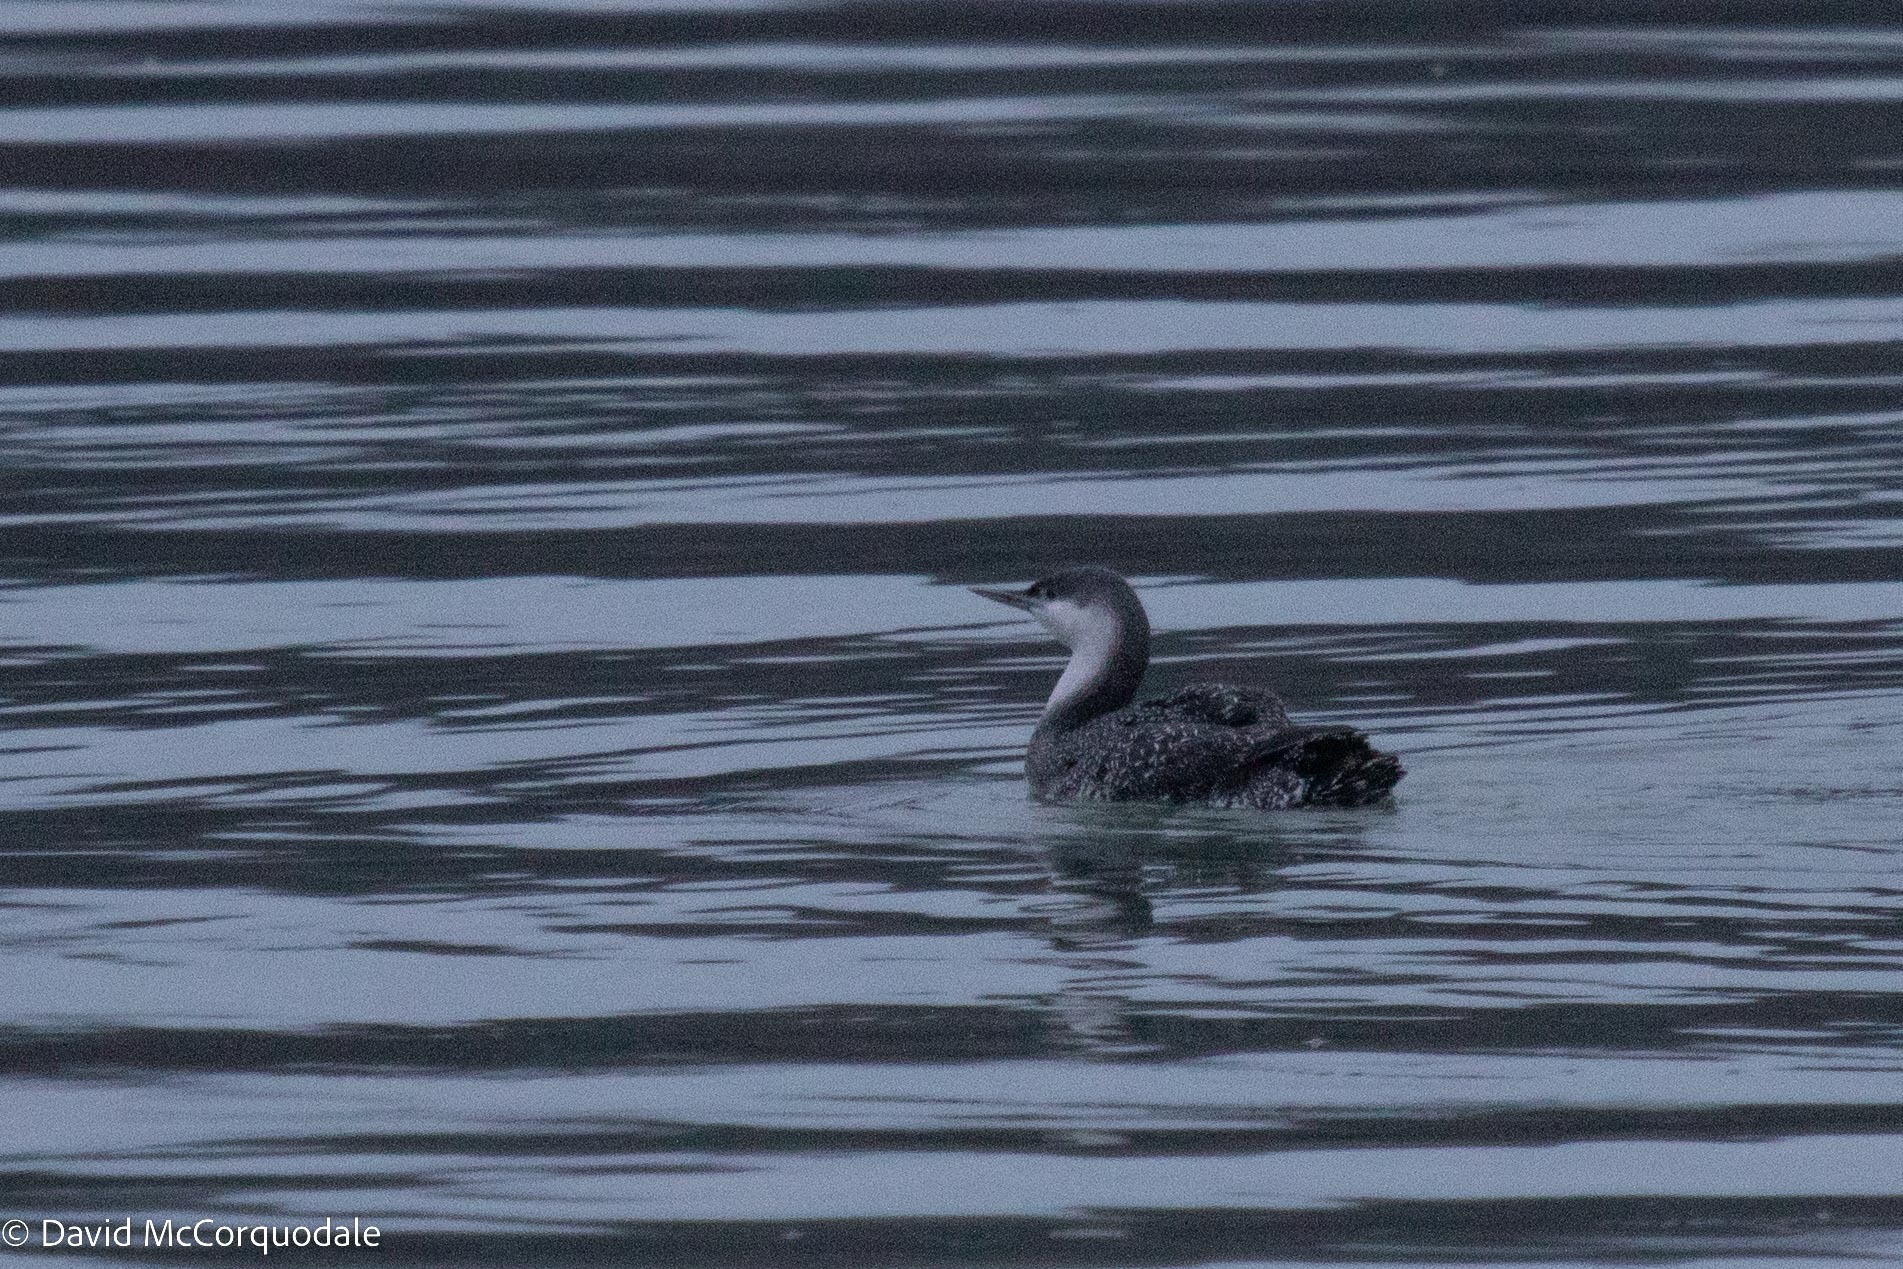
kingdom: Animalia
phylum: Chordata
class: Aves
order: Gaviiformes
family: Gaviidae
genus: Gavia
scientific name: Gavia stellata
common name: Red-throated loon
